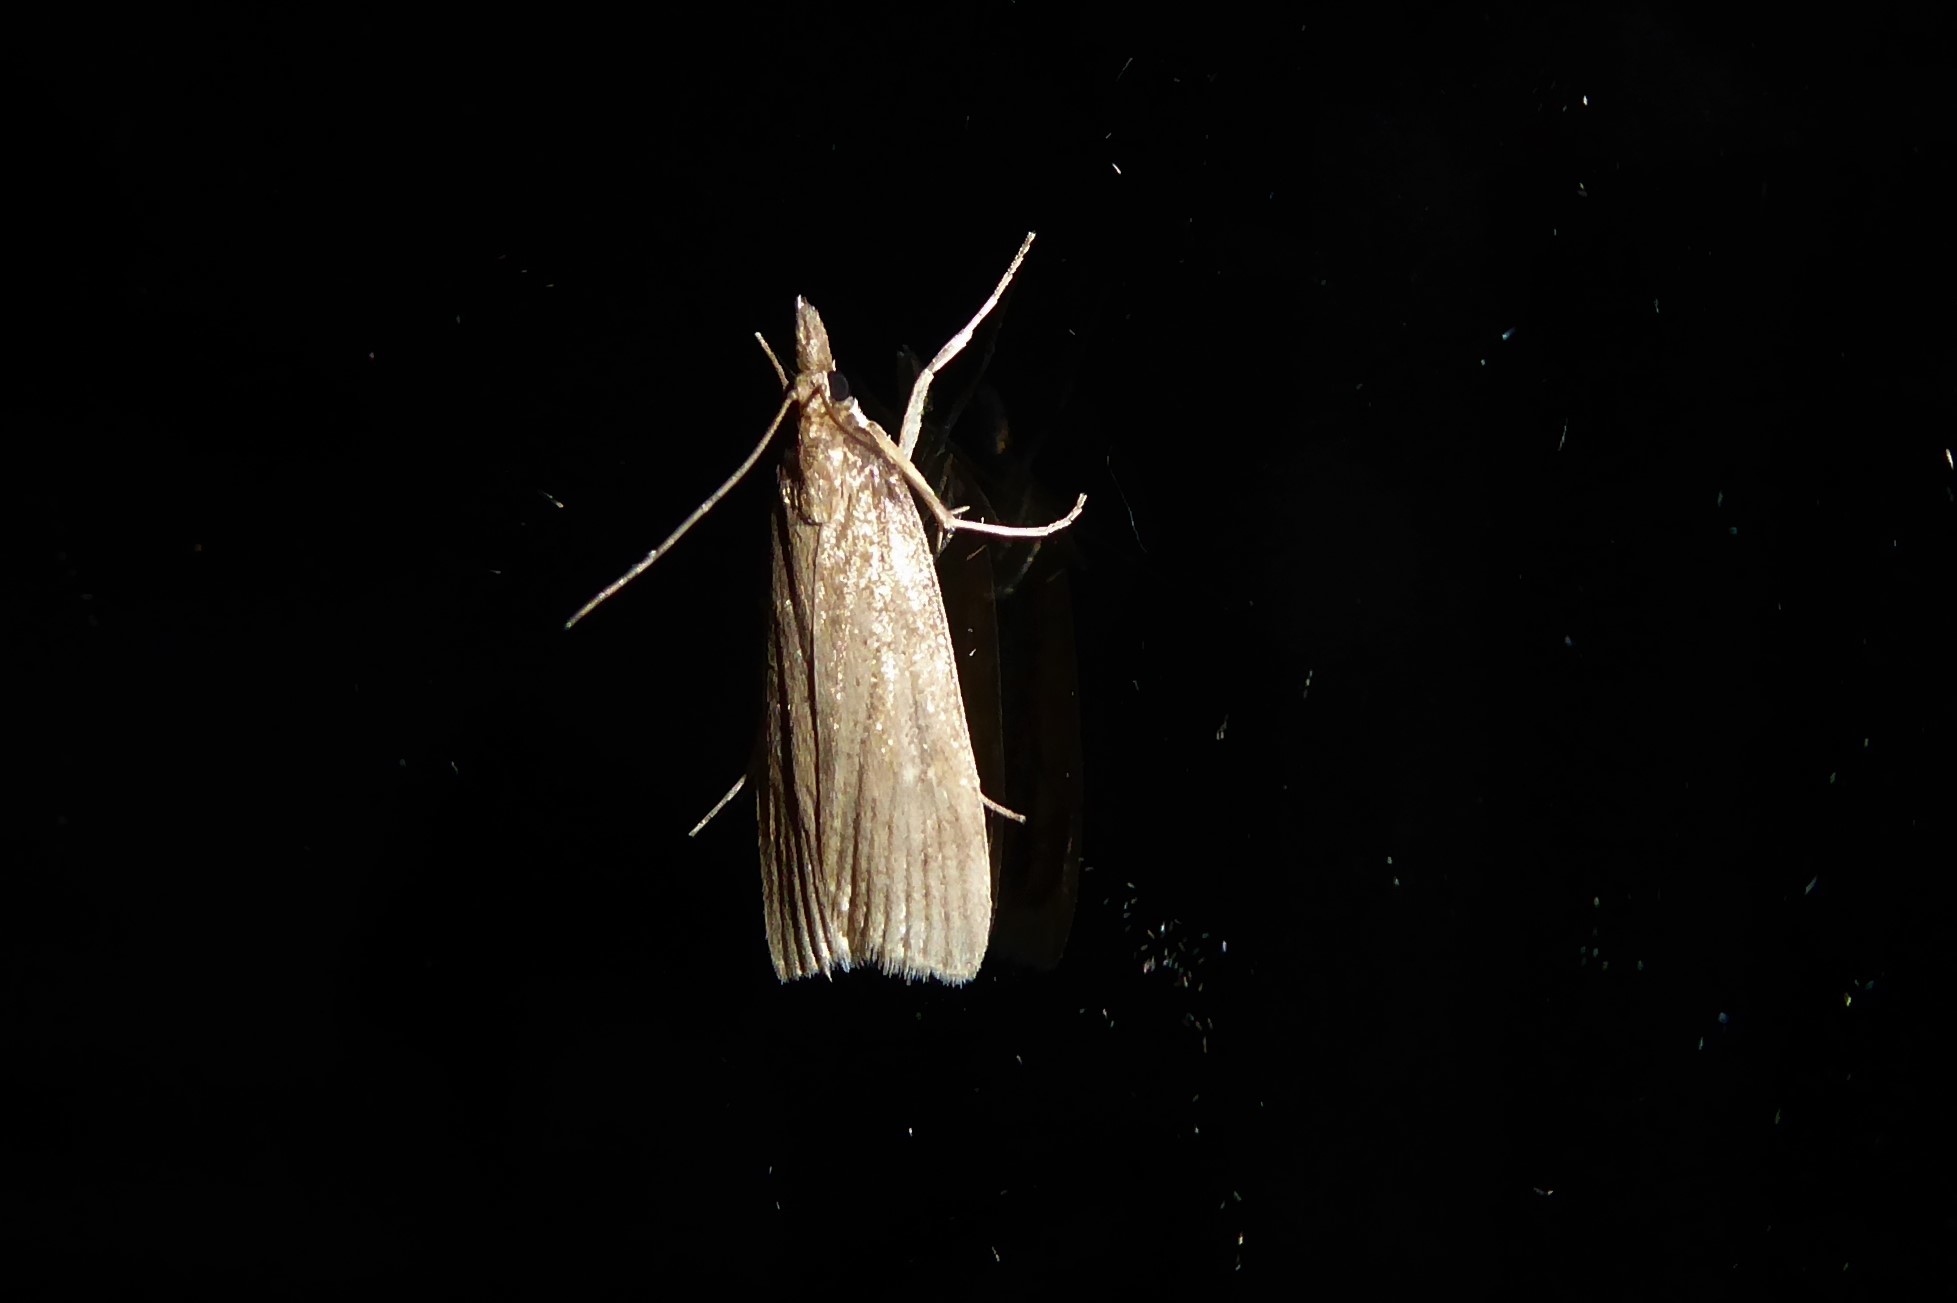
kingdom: Animalia
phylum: Arthropoda
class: Insecta
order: Lepidoptera
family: Crambidae
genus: Eudonia
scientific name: Eudonia octophora
